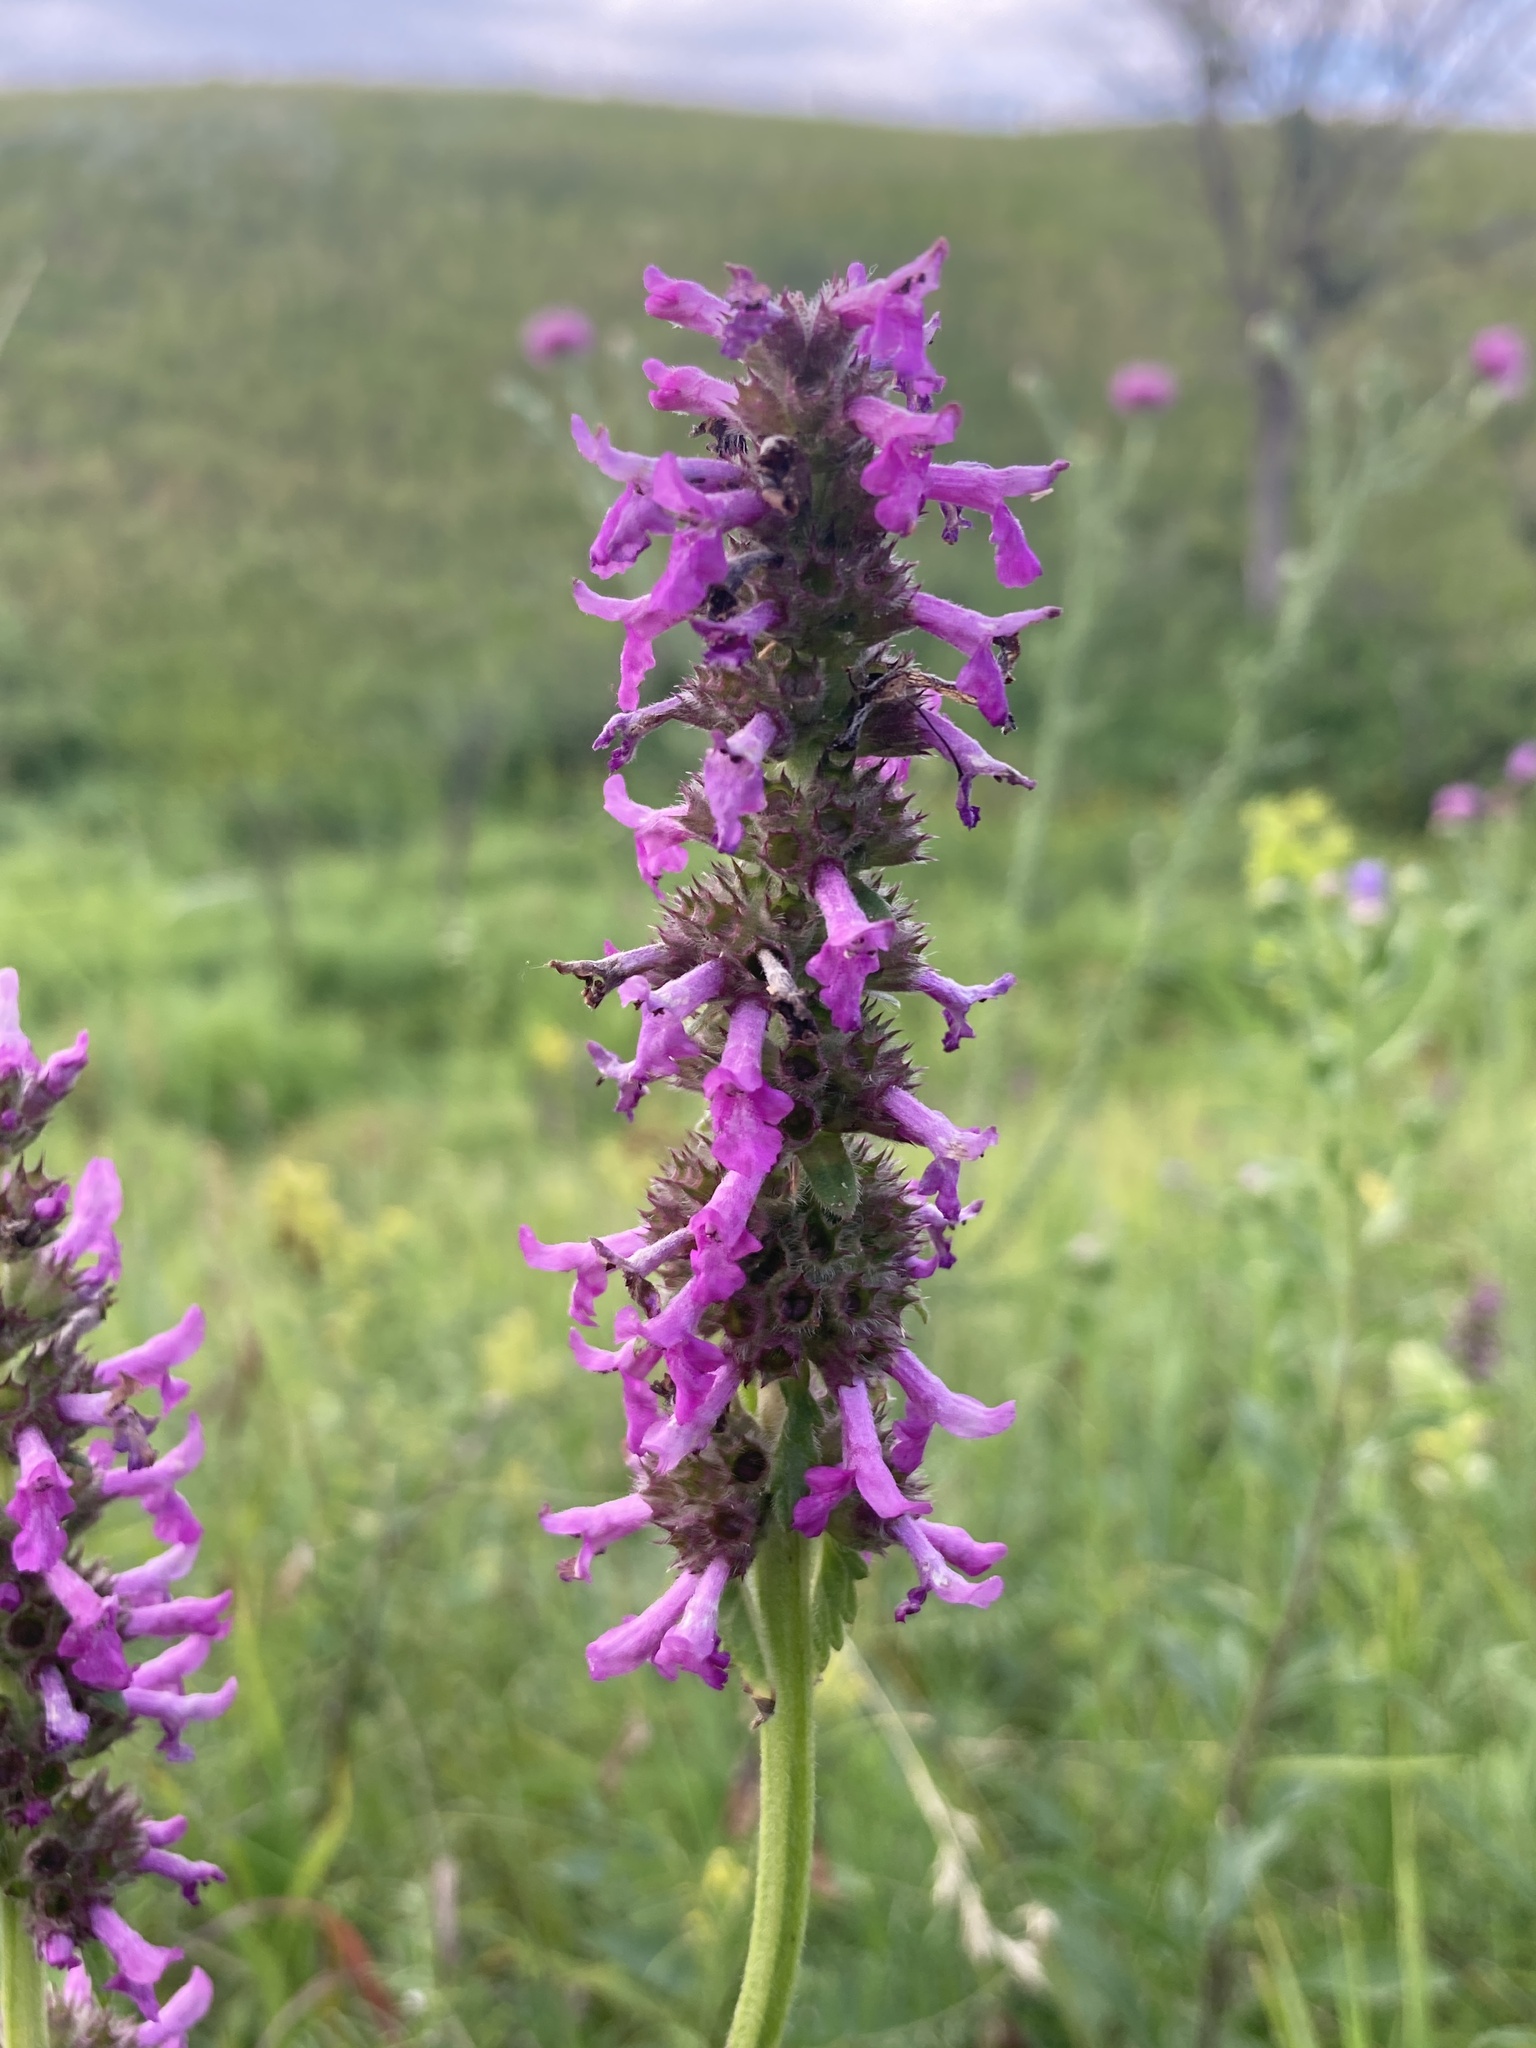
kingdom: Plantae
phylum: Tracheophyta
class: Magnoliopsida
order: Lamiales
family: Lamiaceae
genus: Betonica
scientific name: Betonica officinalis
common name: Bishop's-wort
